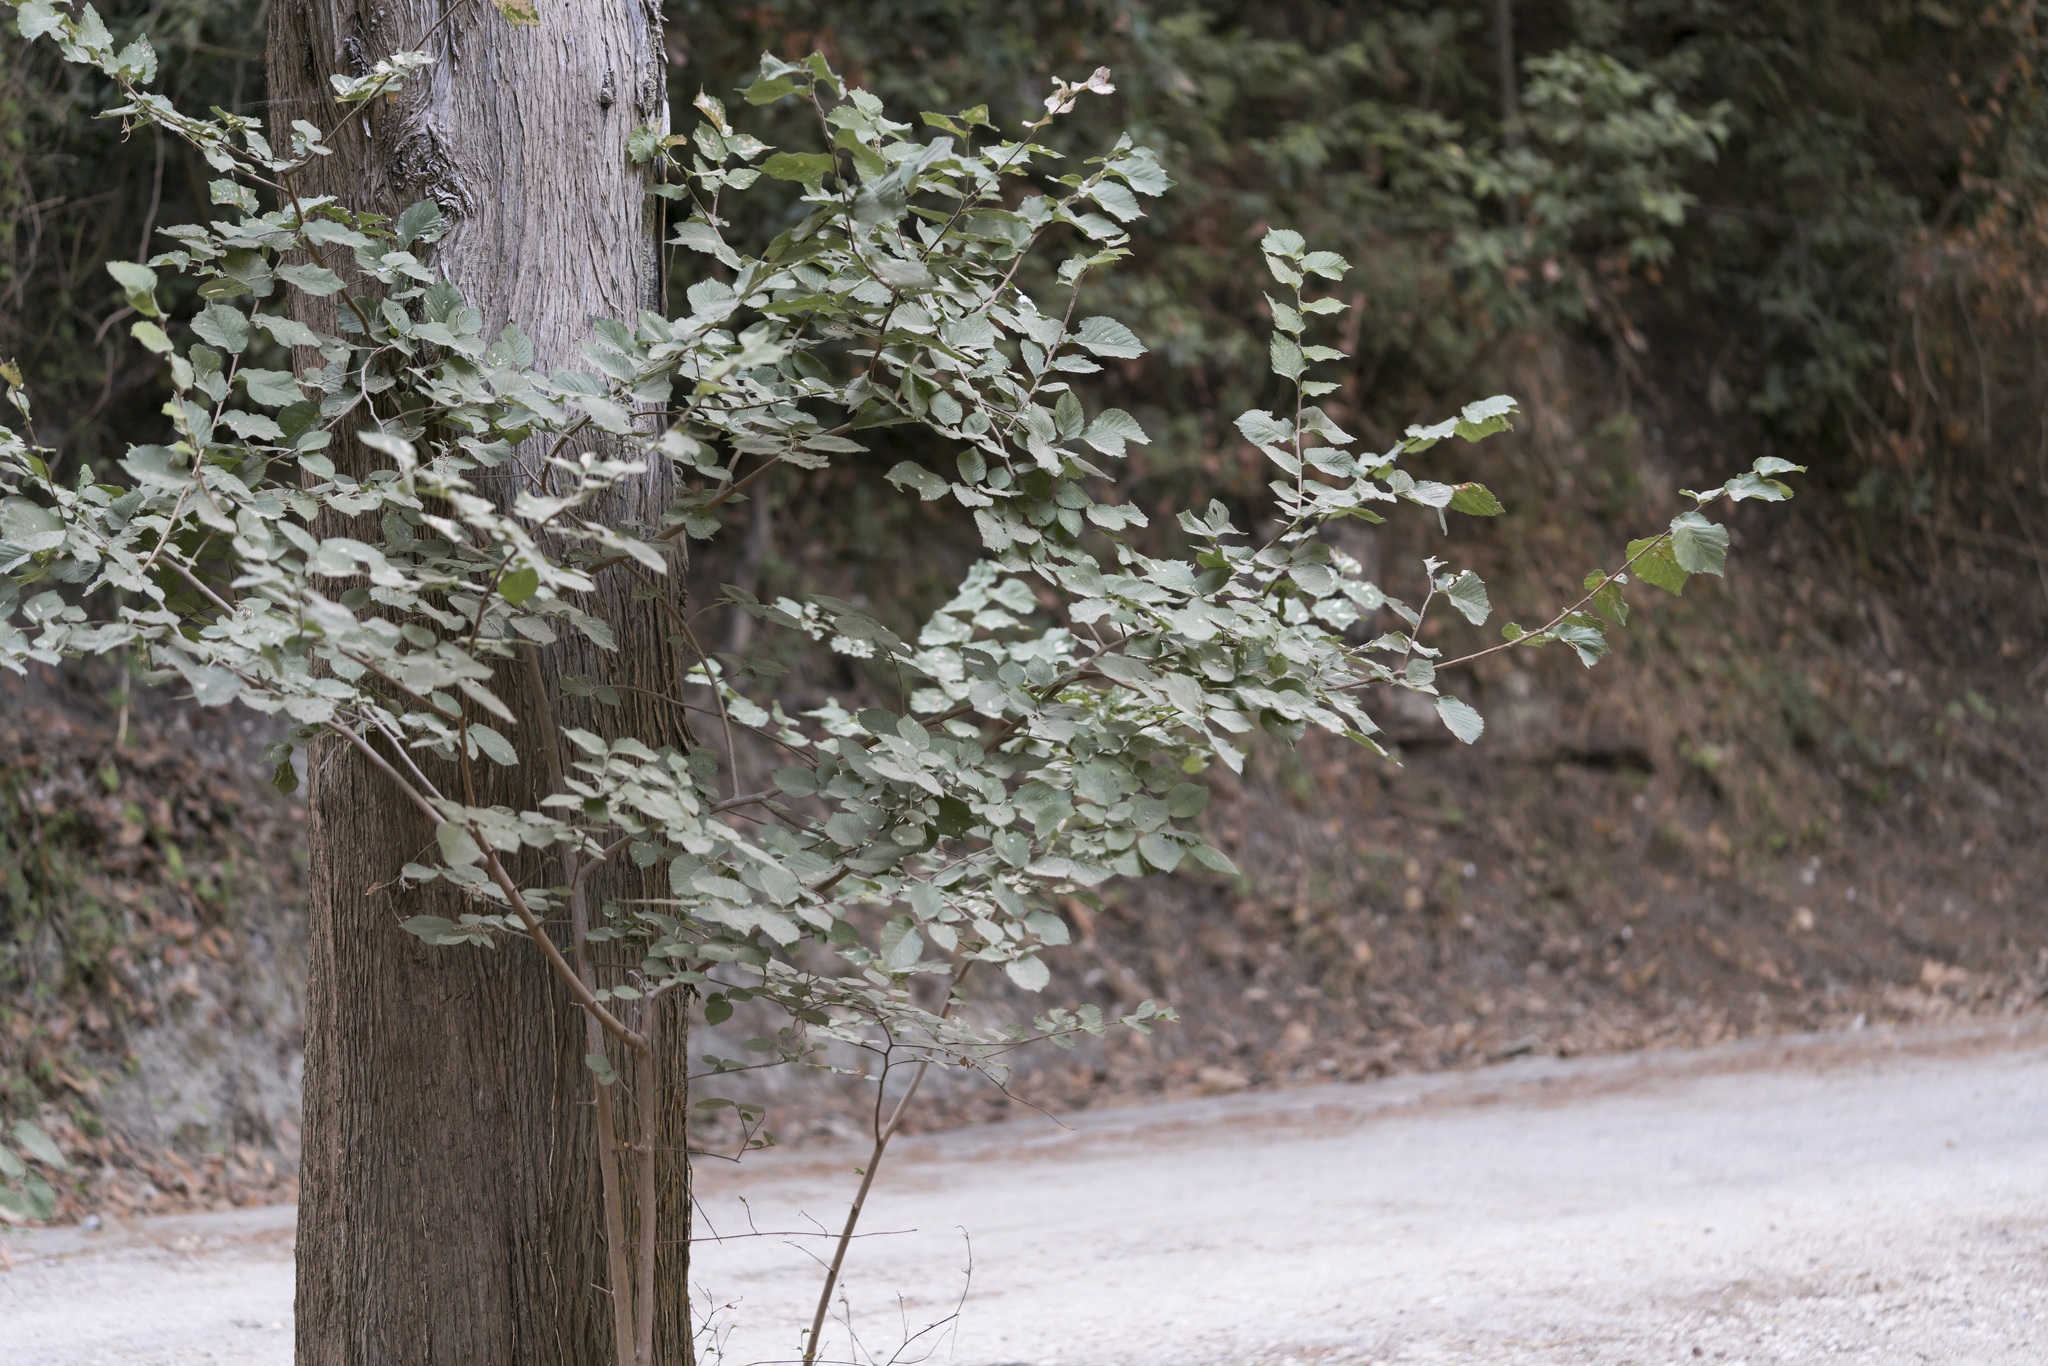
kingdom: Plantae
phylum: Tracheophyta
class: Magnoliopsida
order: Rosales
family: Ulmaceae
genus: Ulmus
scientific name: Ulmus minor
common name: Small-leaved elm
